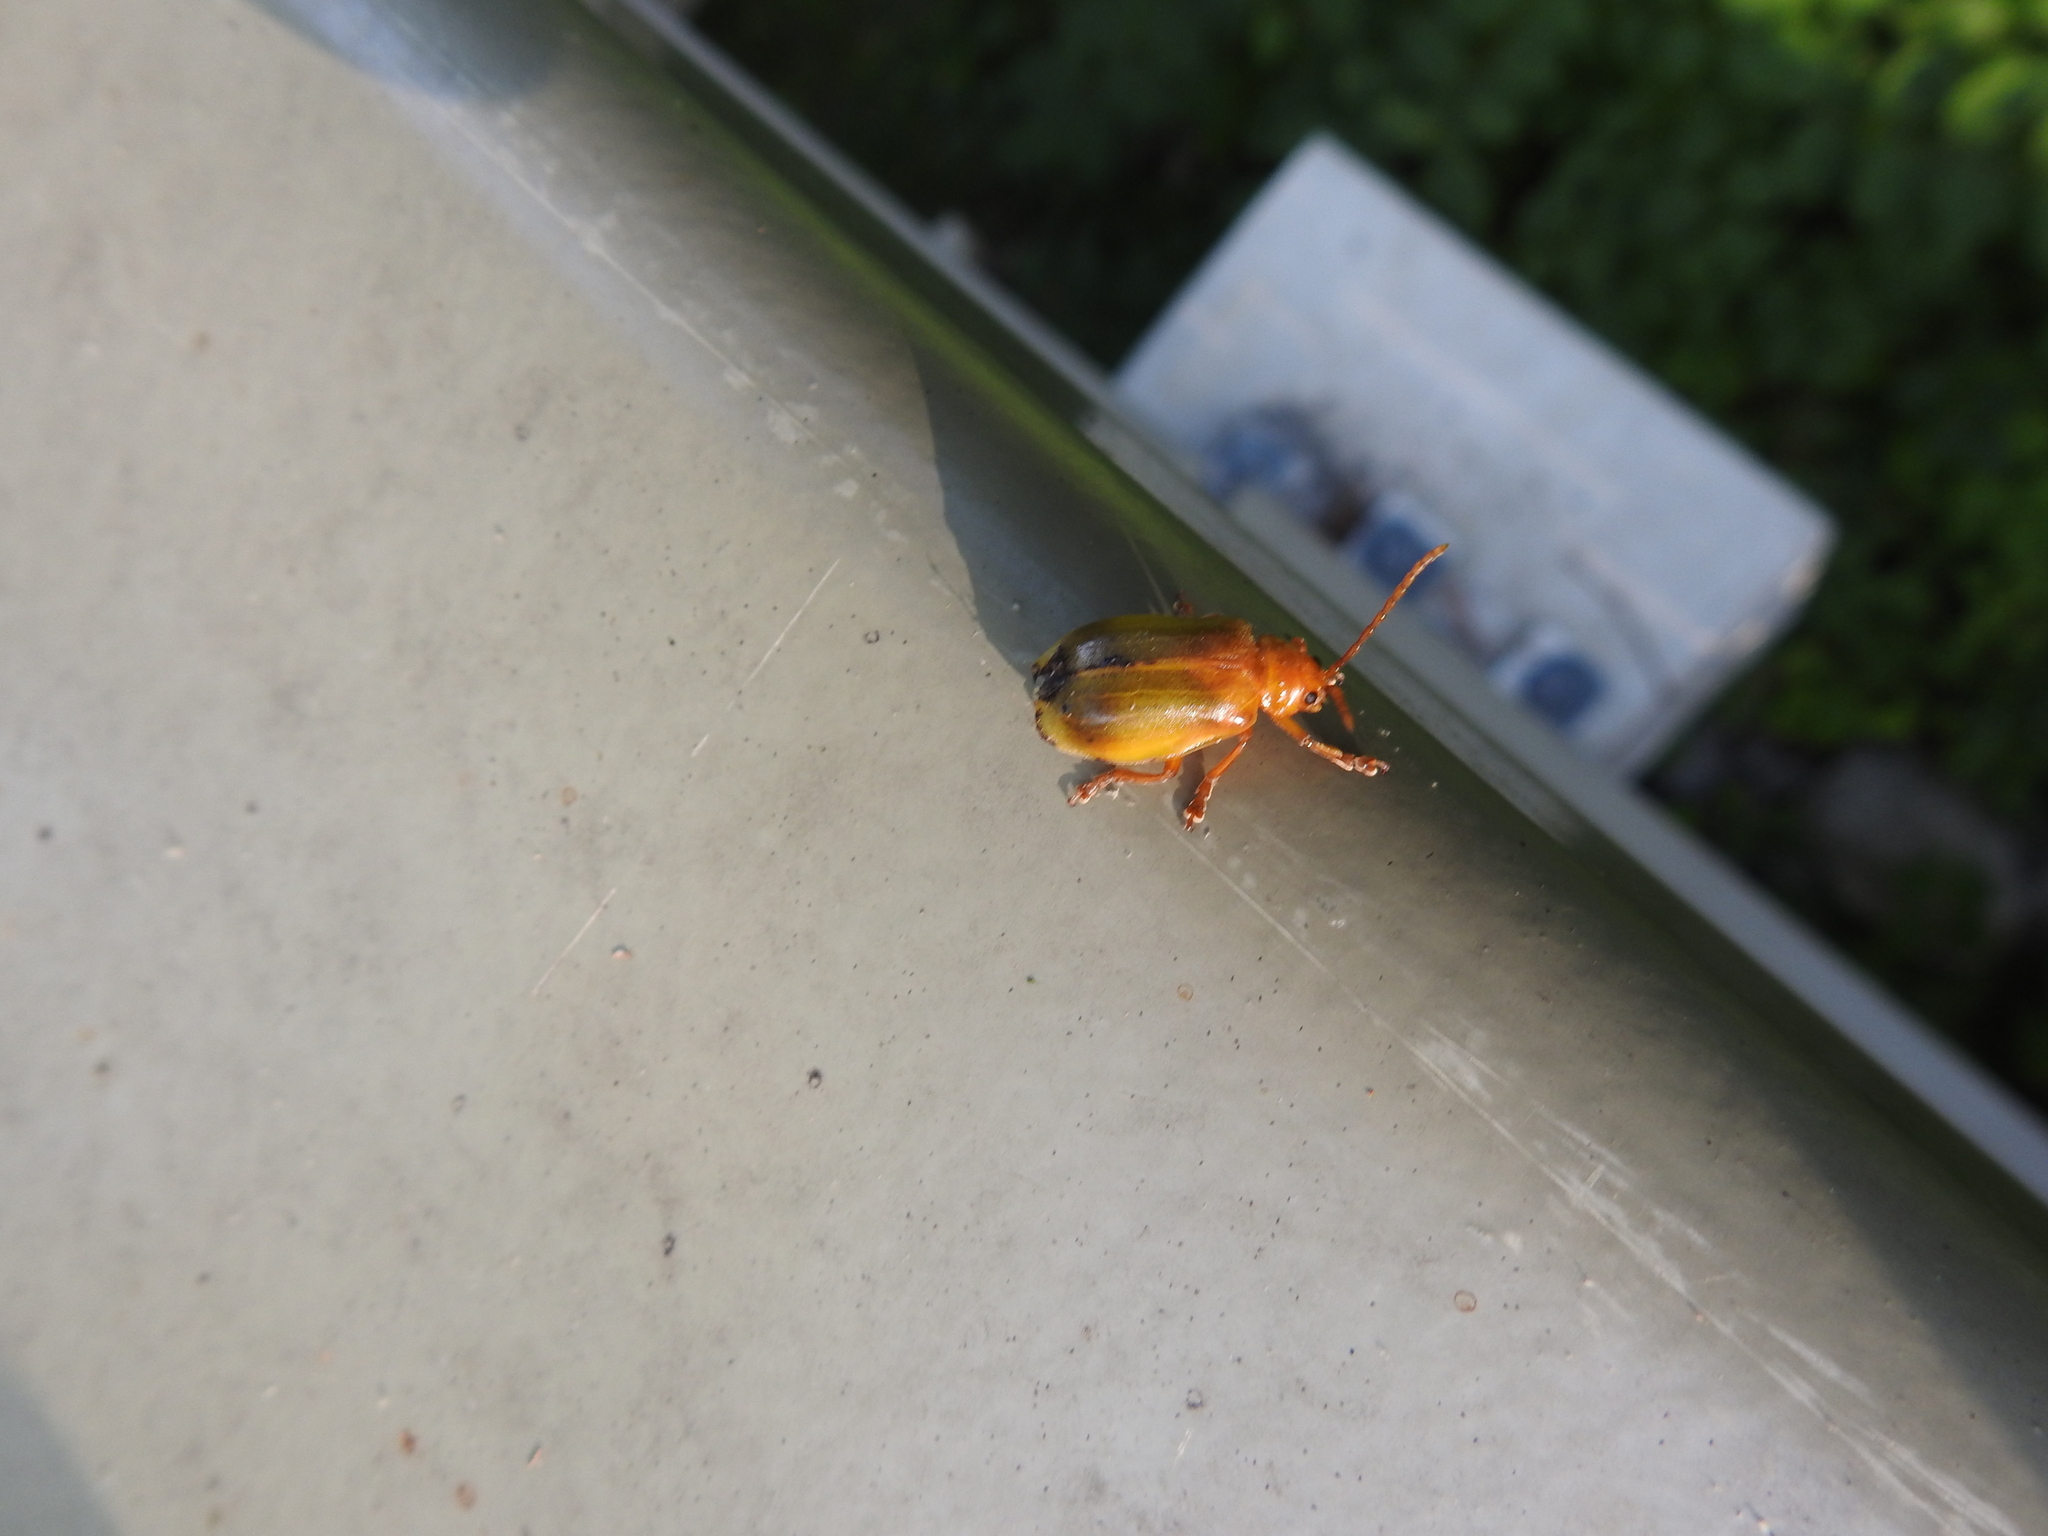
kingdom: Animalia
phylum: Arthropoda
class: Insecta
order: Coleoptera
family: Chrysomelidae
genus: Monocesta
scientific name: Monocesta coryli
